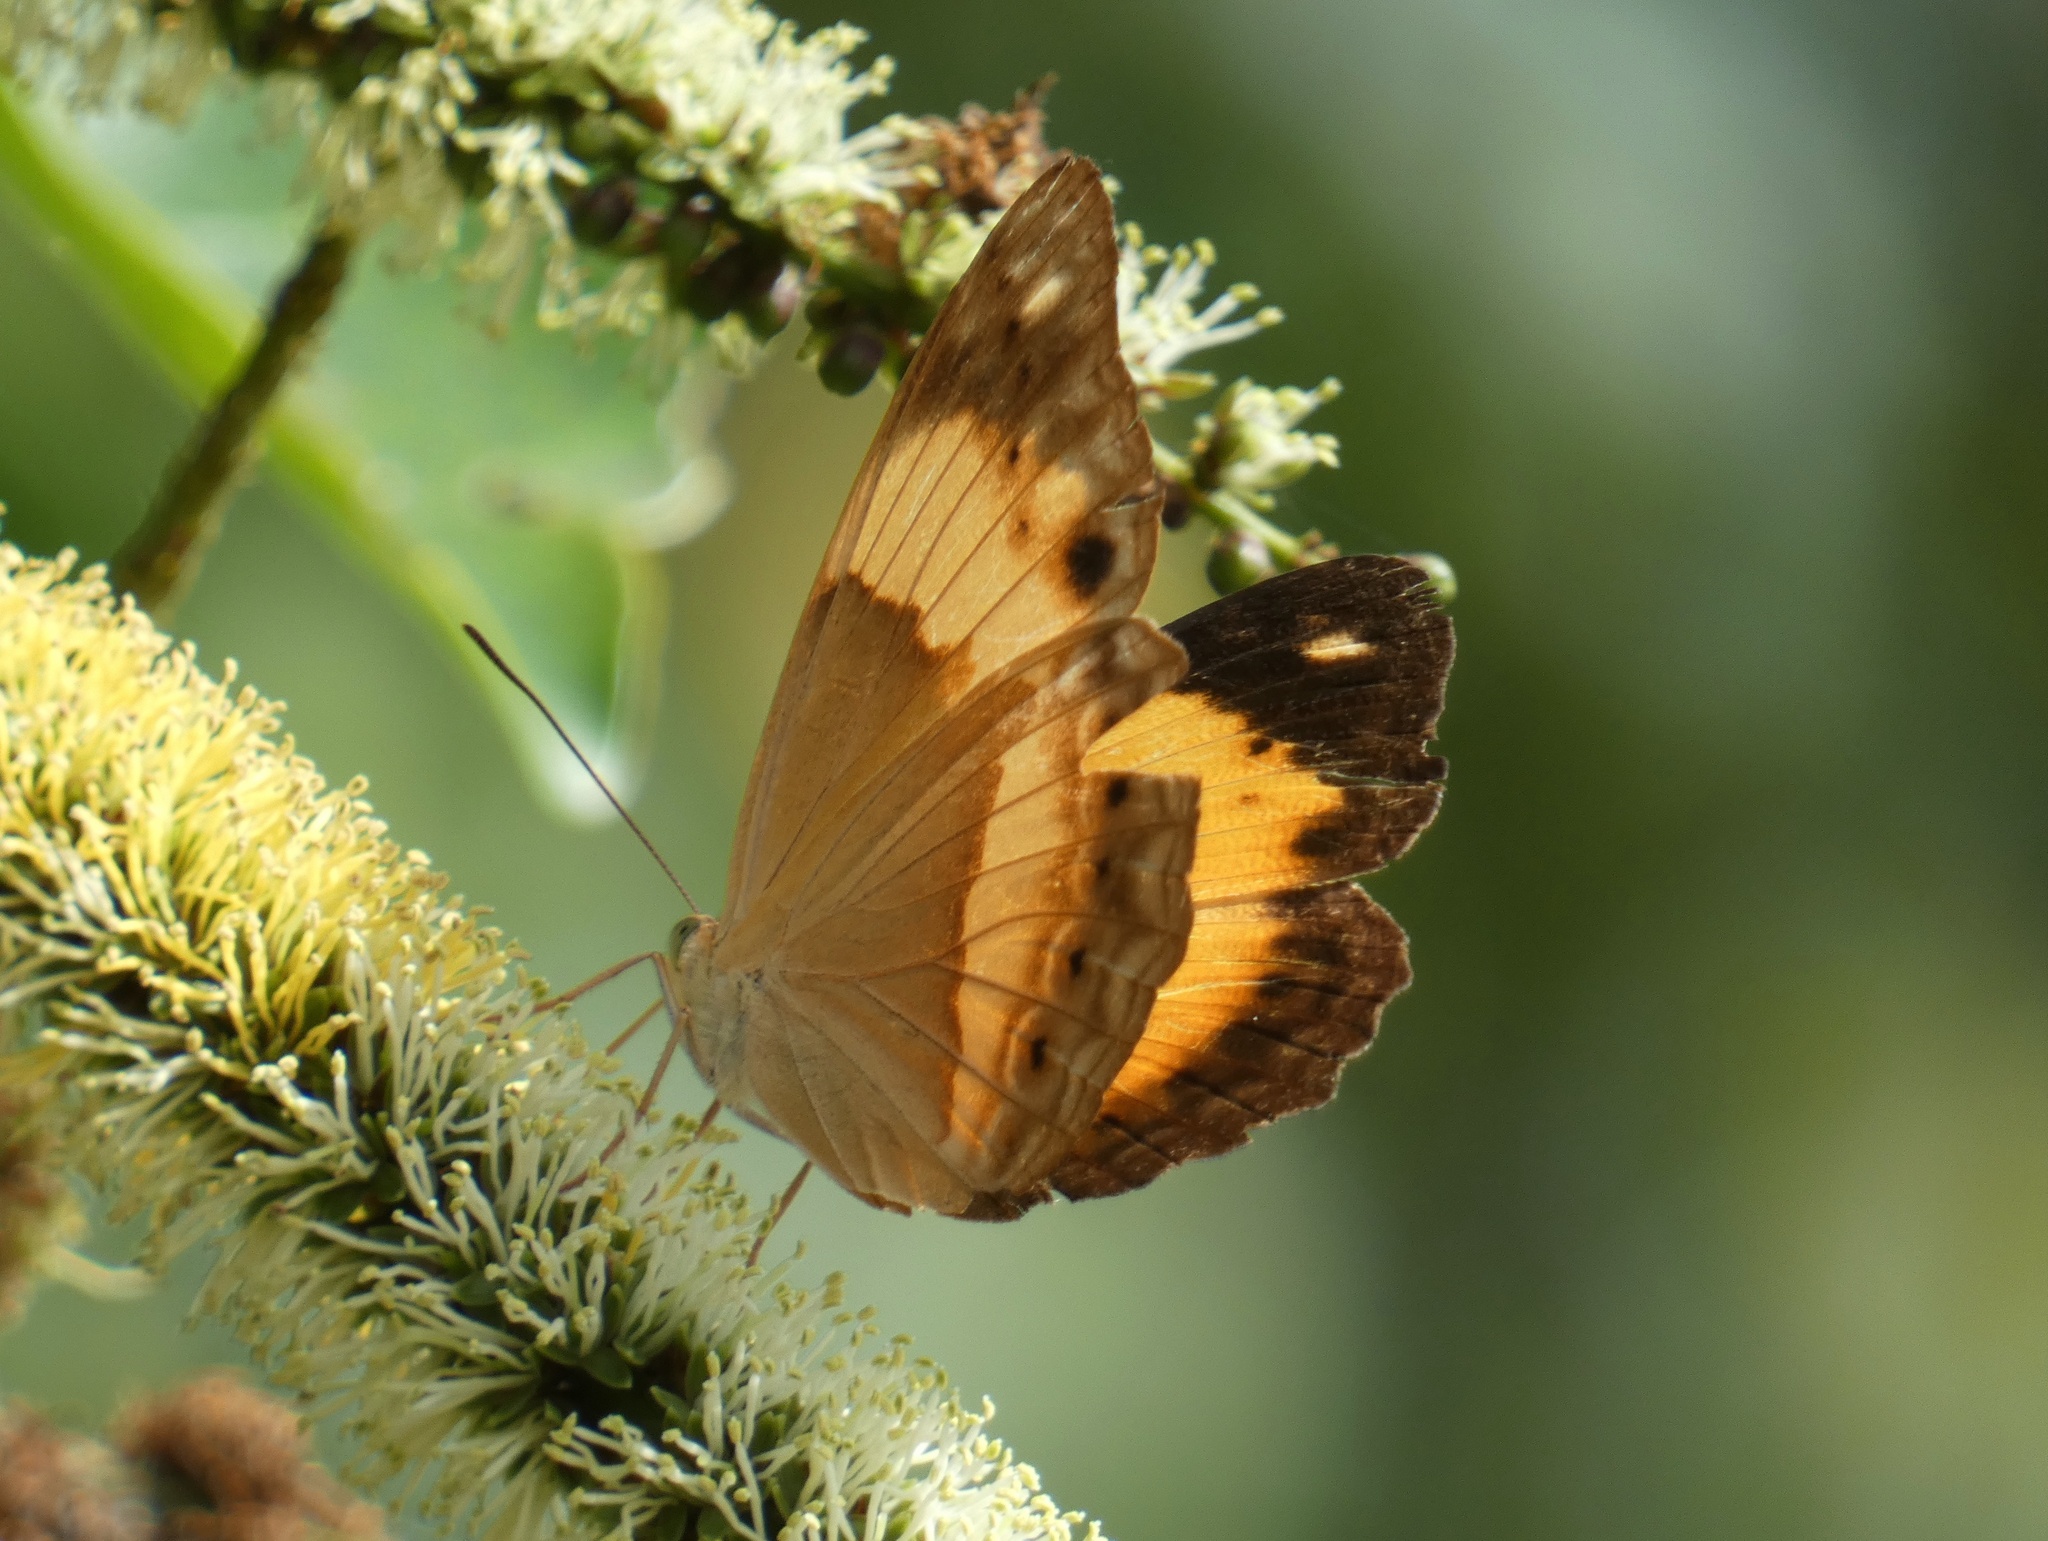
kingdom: Animalia
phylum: Arthropoda
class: Insecta
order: Lepidoptera
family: Nymphalidae
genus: Cupha
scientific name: Cupha prosope
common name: Bordered rustic
